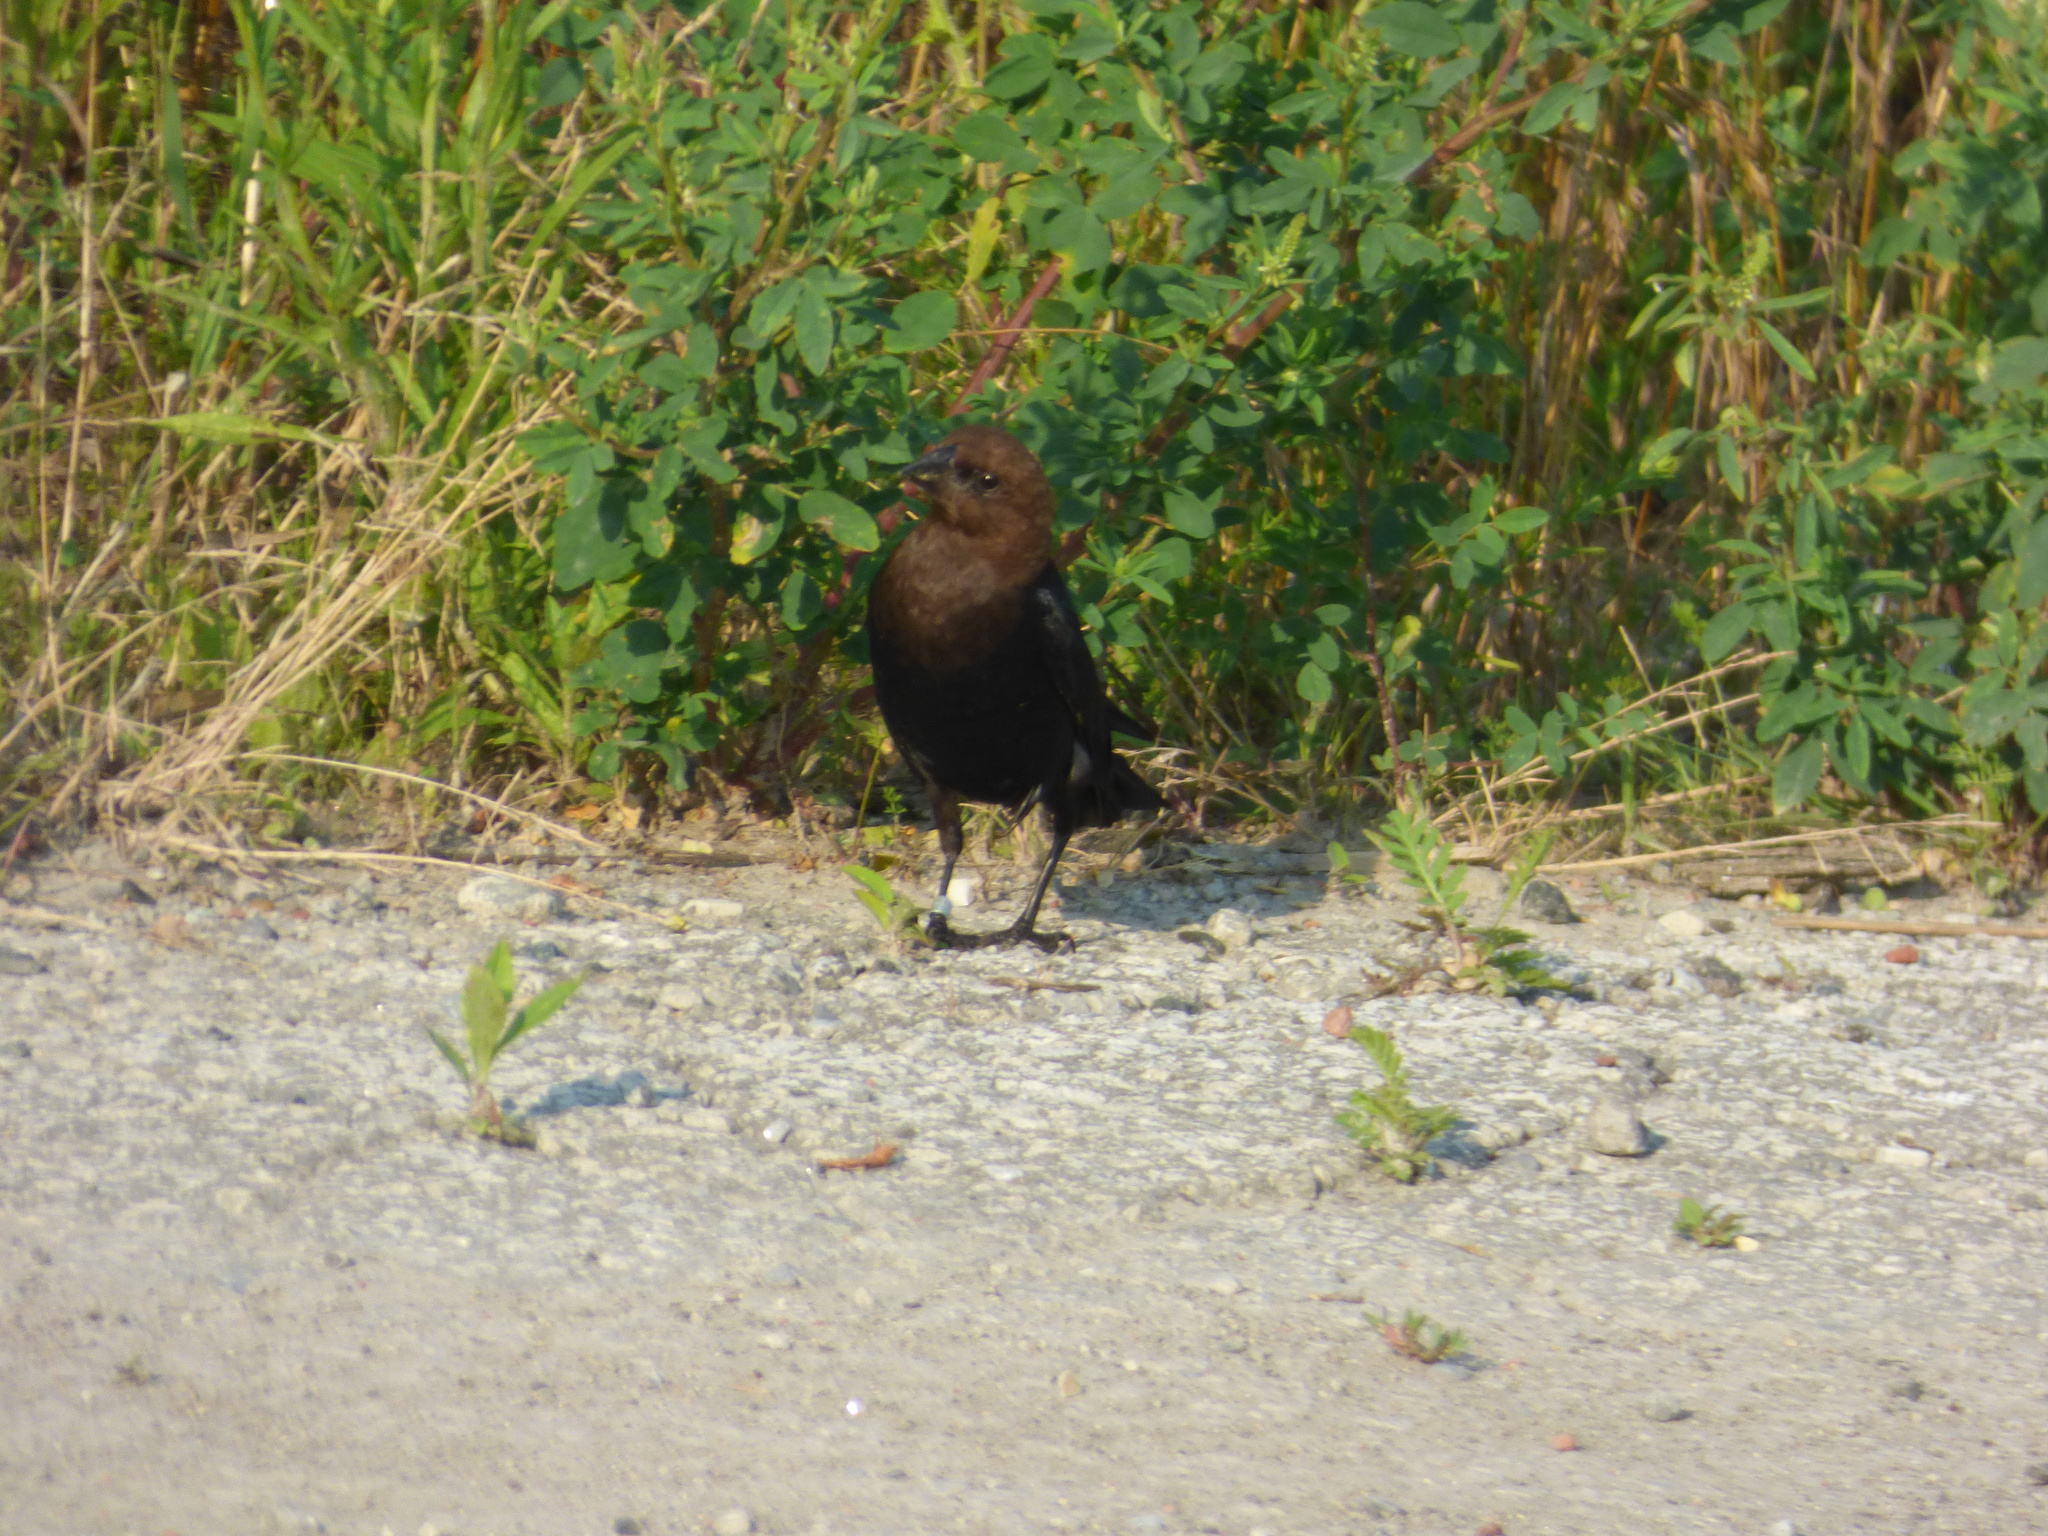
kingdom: Animalia
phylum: Chordata
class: Aves
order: Passeriformes
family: Icteridae
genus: Molothrus
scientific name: Molothrus ater
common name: Brown-headed cowbird
